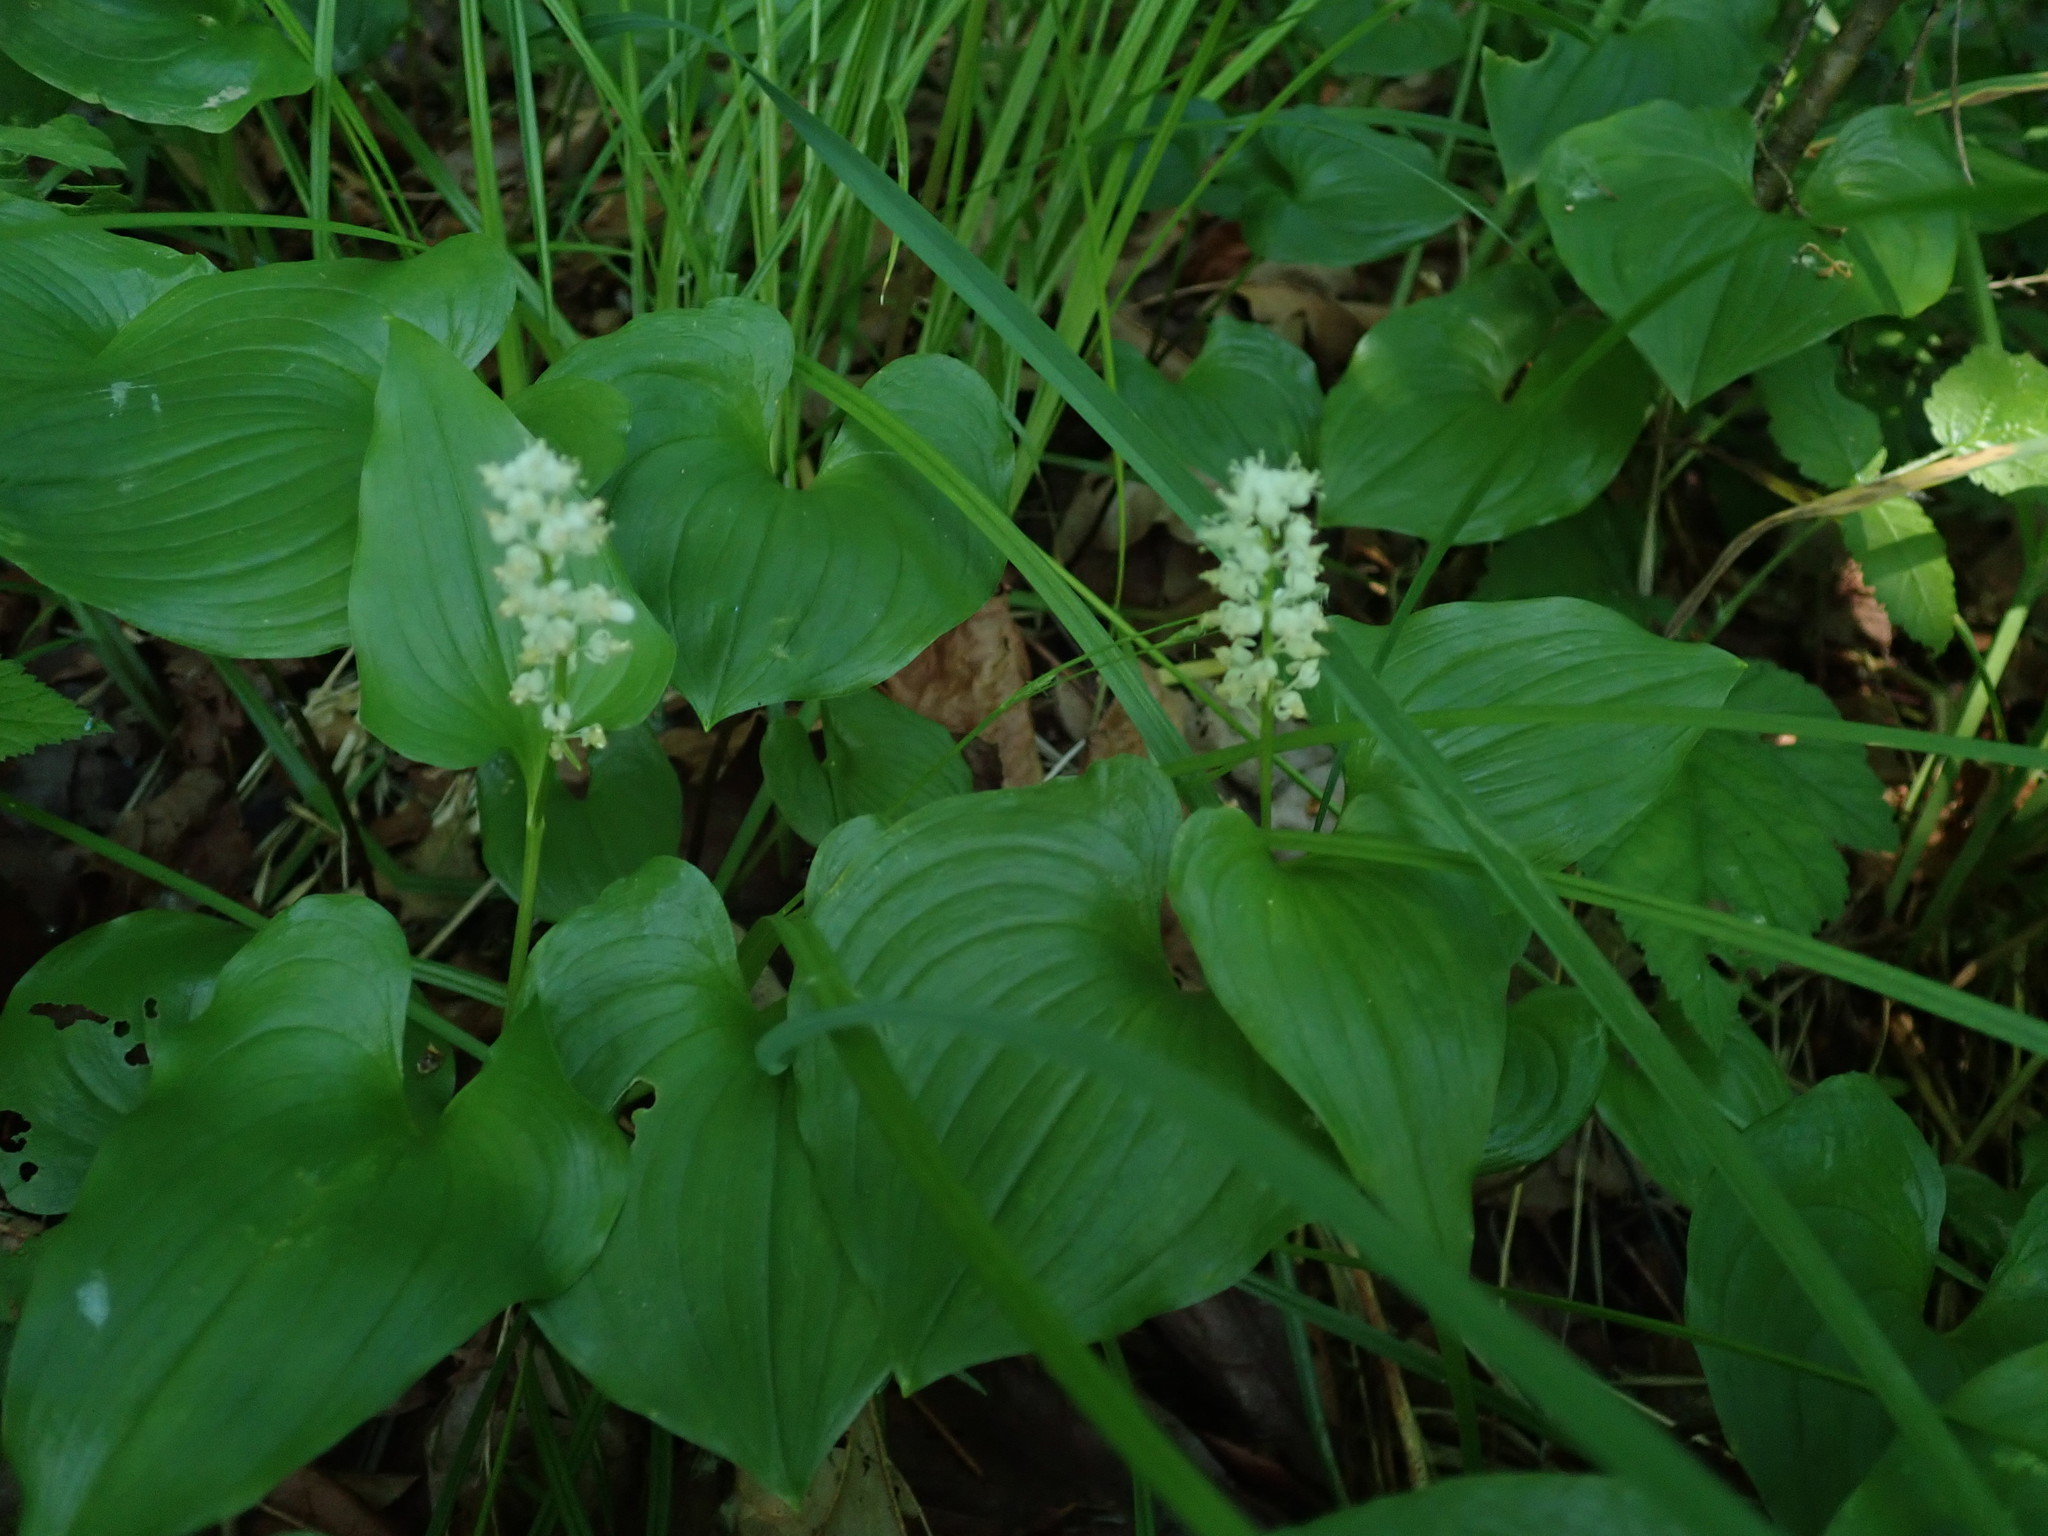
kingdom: Plantae
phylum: Tracheophyta
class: Liliopsida
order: Asparagales
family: Asparagaceae
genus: Maianthemum
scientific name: Maianthemum dilatatum
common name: False lily-of-the-valley
